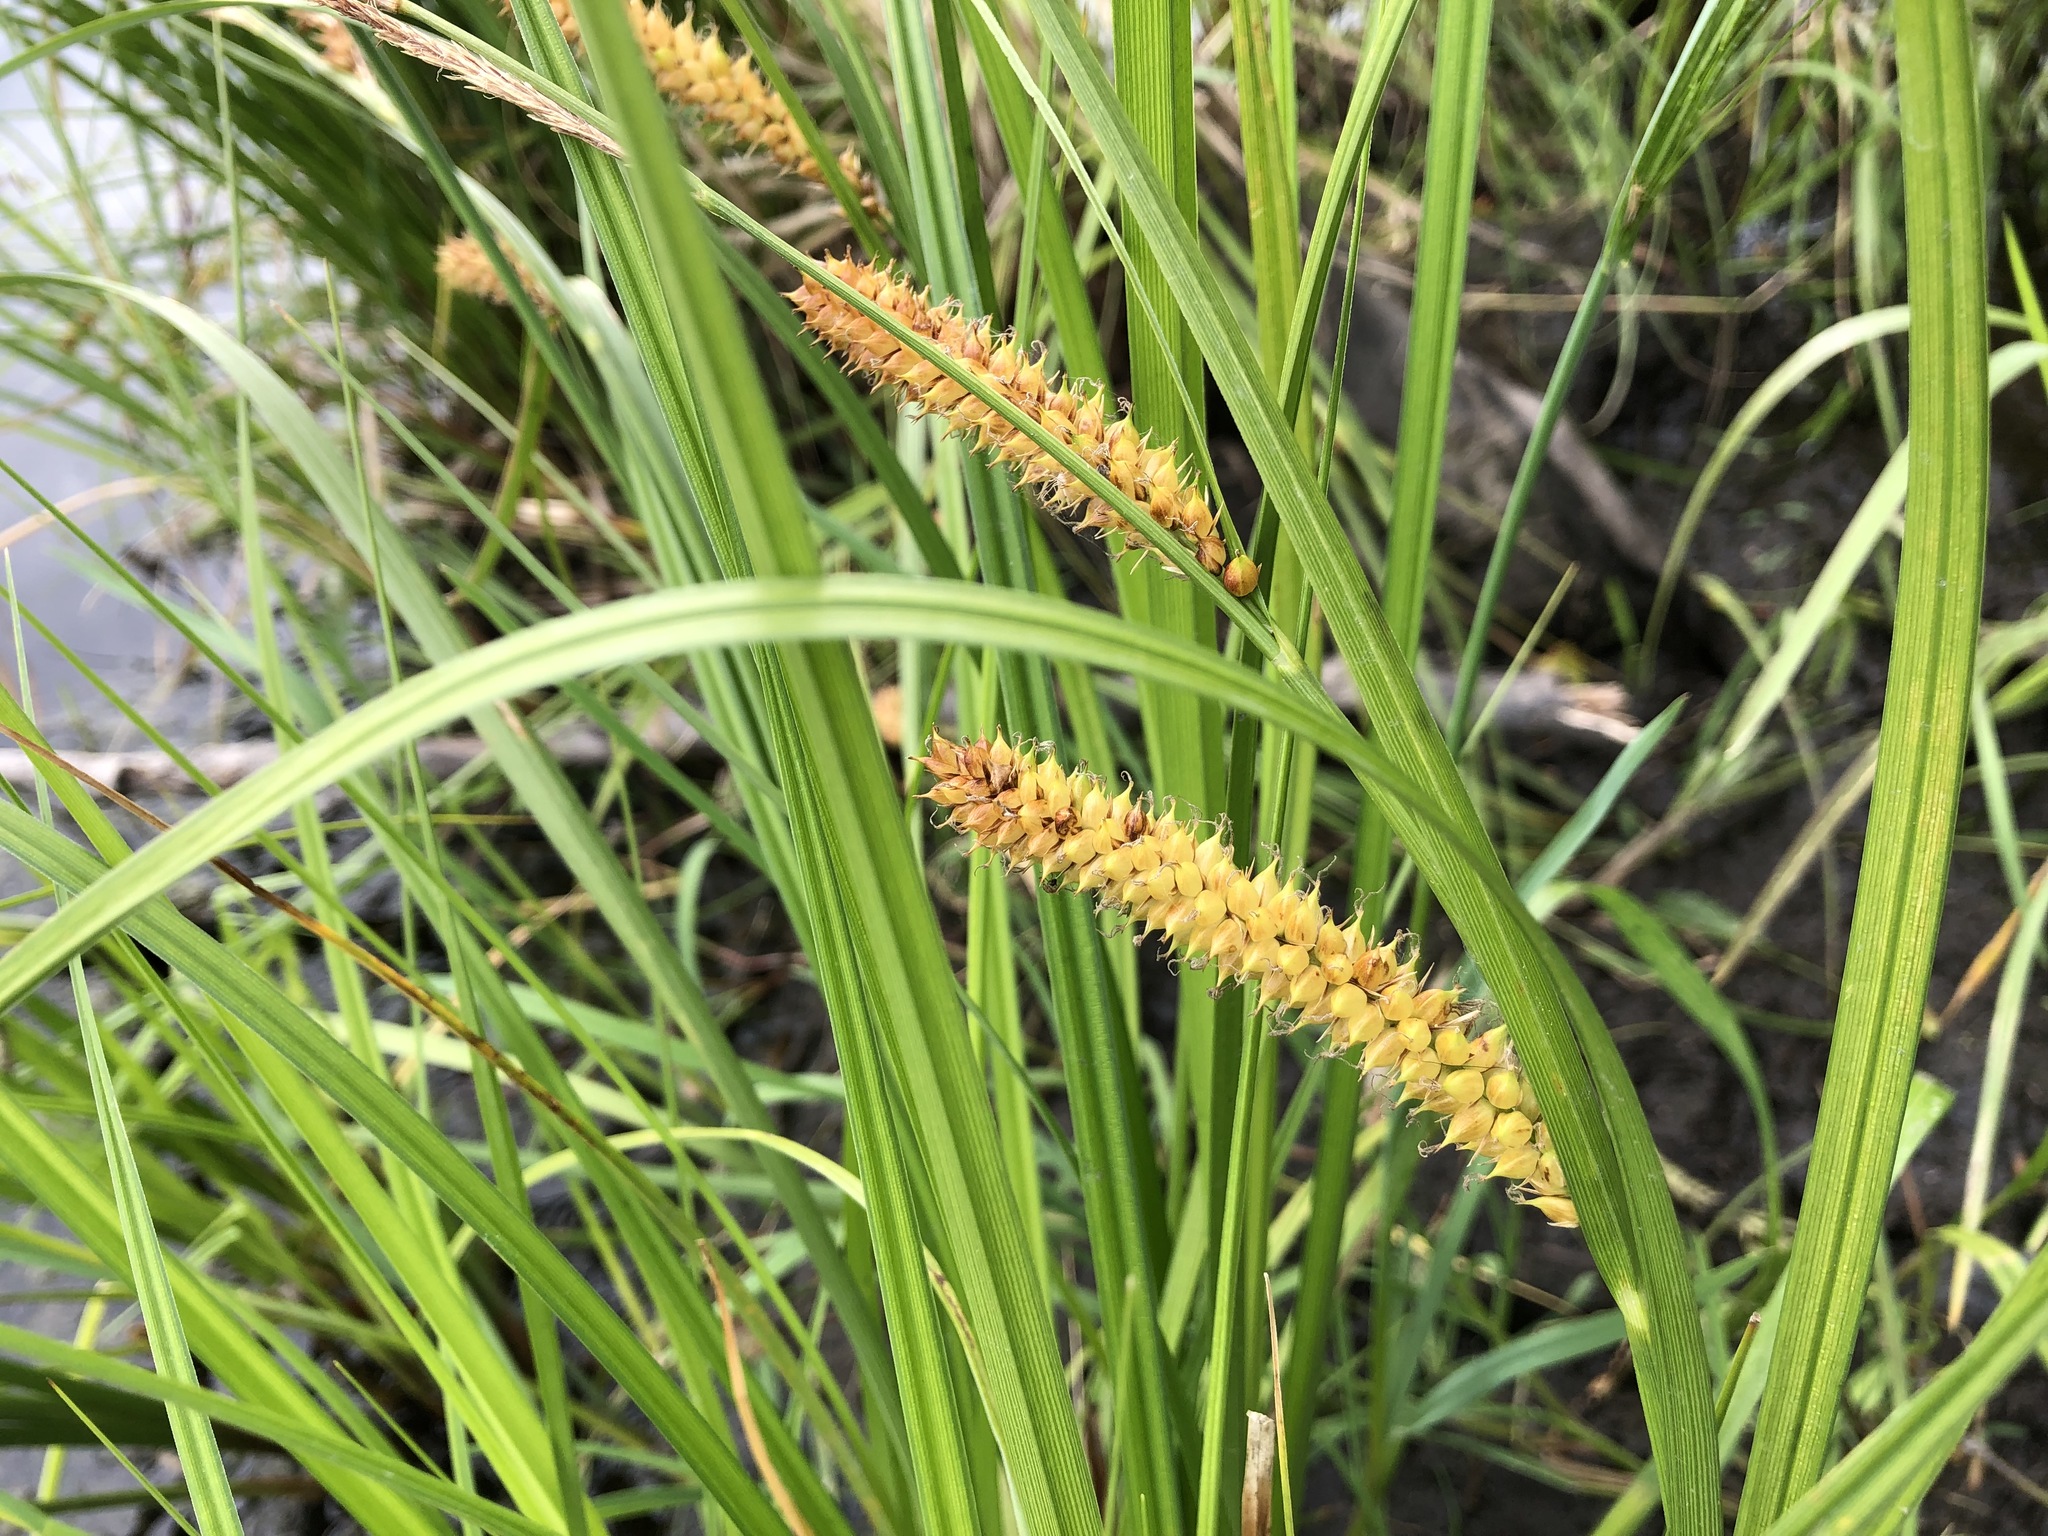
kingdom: Plantae
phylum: Tracheophyta
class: Liliopsida
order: Poales
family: Cyperaceae
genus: Carex
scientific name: Carex utriculata
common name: Beaked sedge
